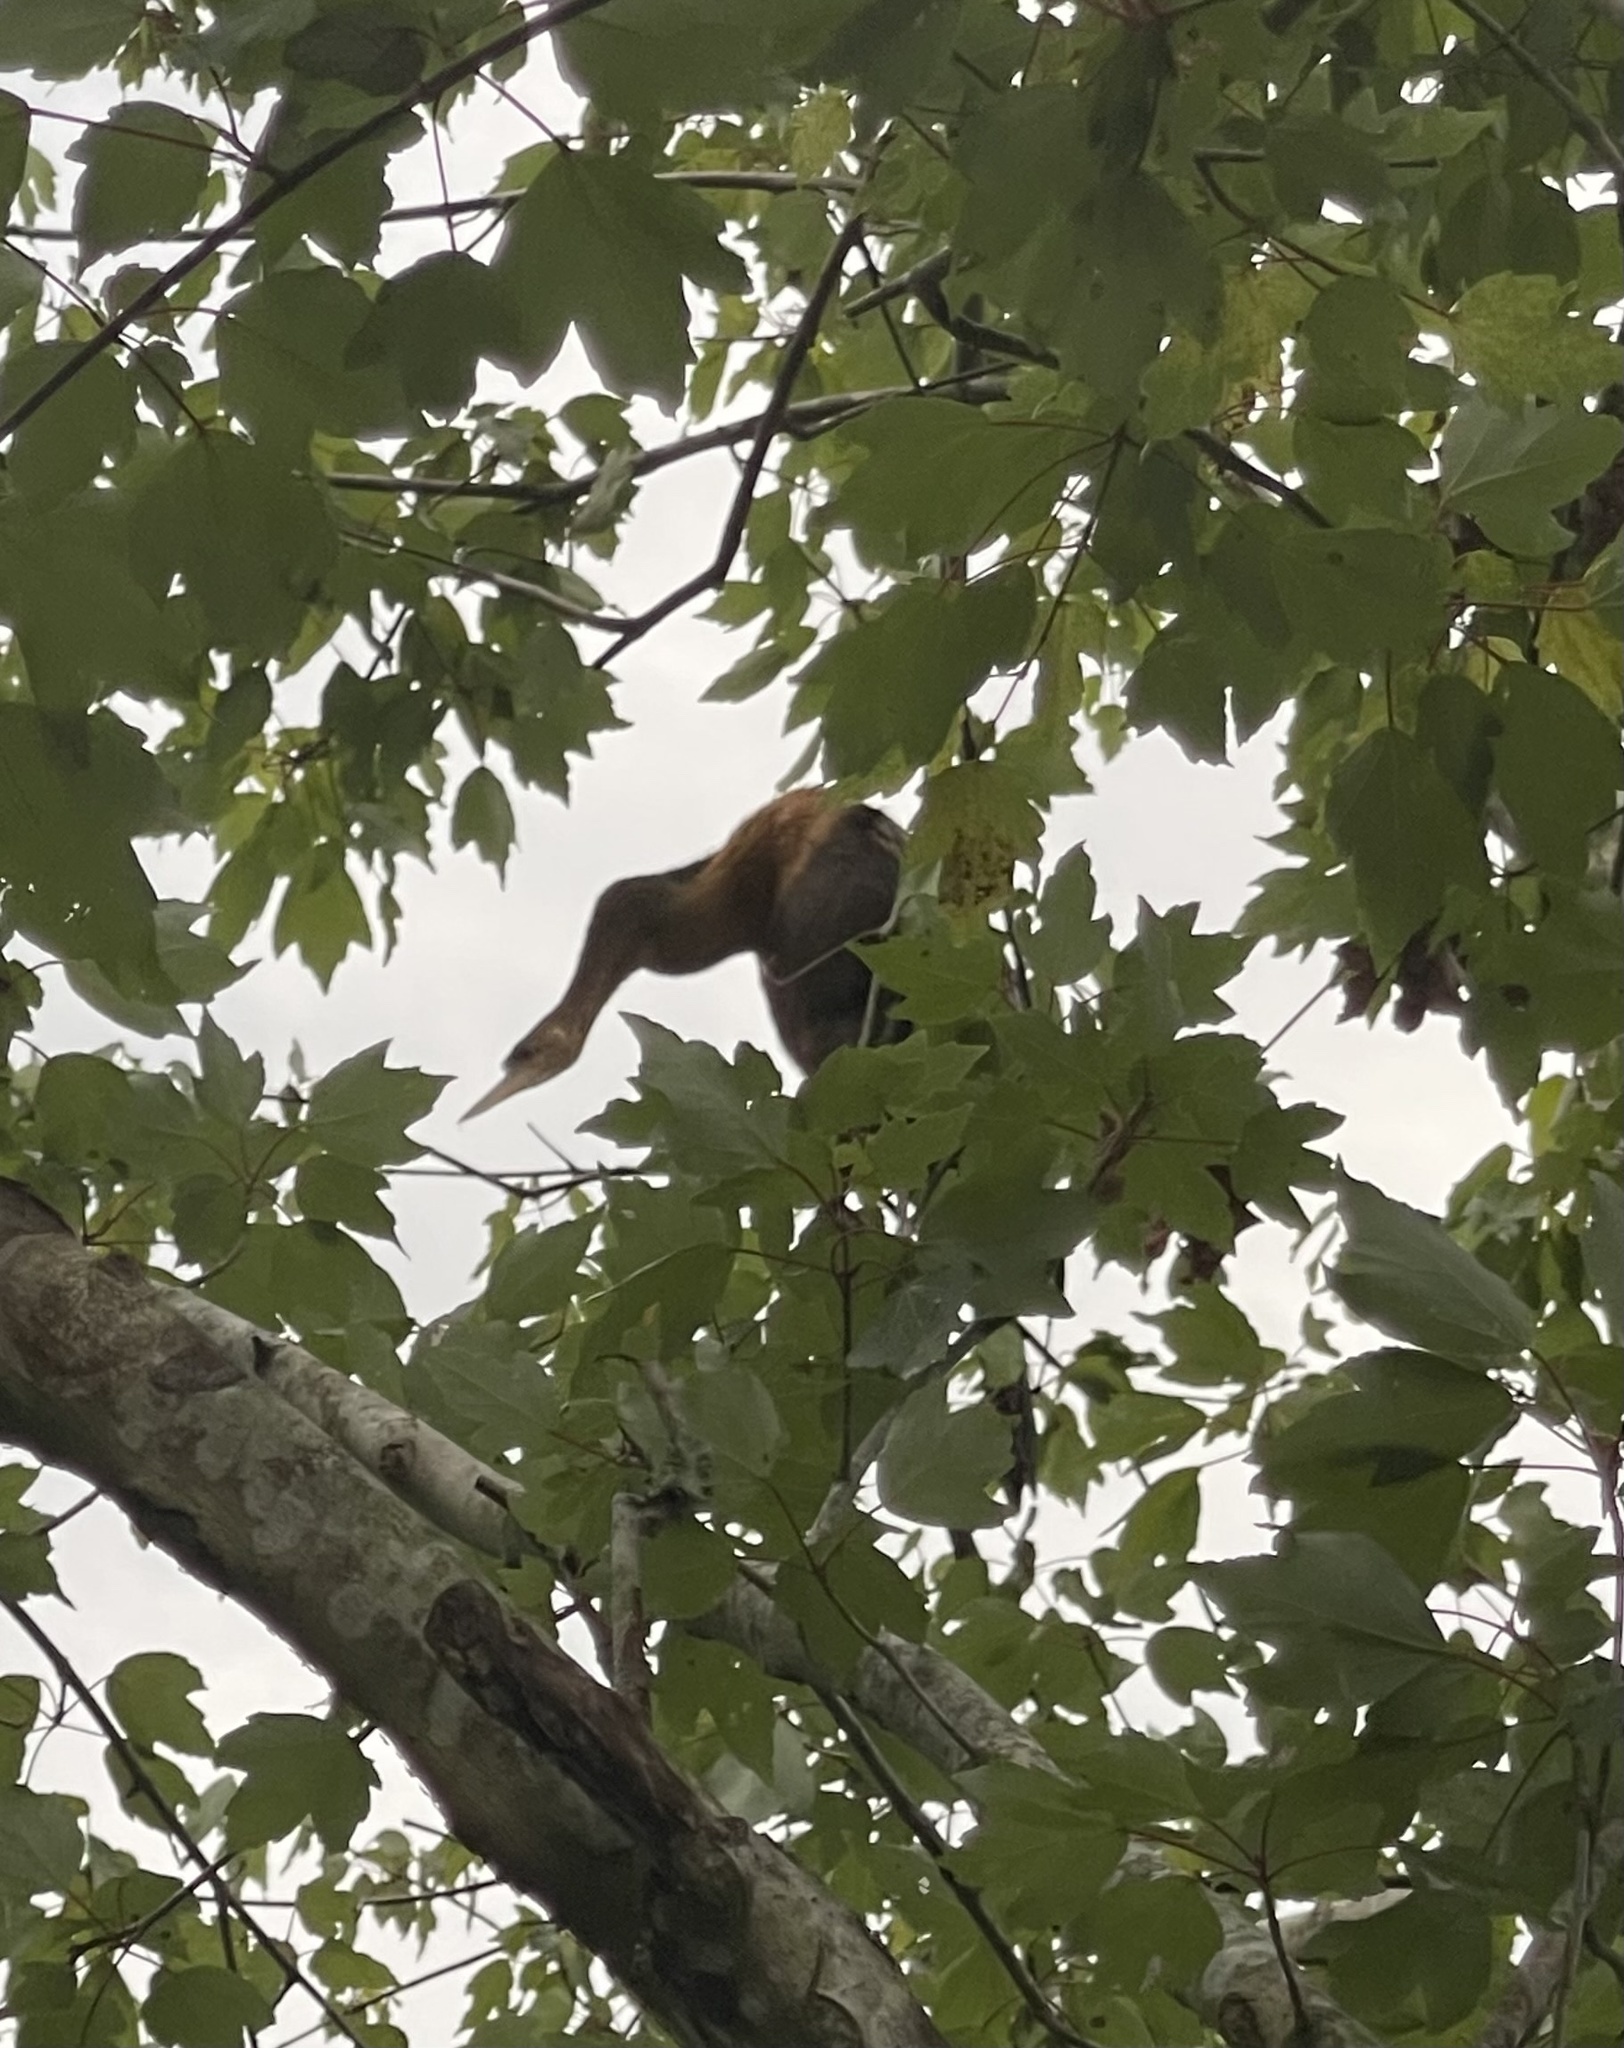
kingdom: Animalia
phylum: Chordata
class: Aves
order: Suliformes
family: Anhingidae
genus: Anhinga
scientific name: Anhinga anhinga
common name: Anhinga
